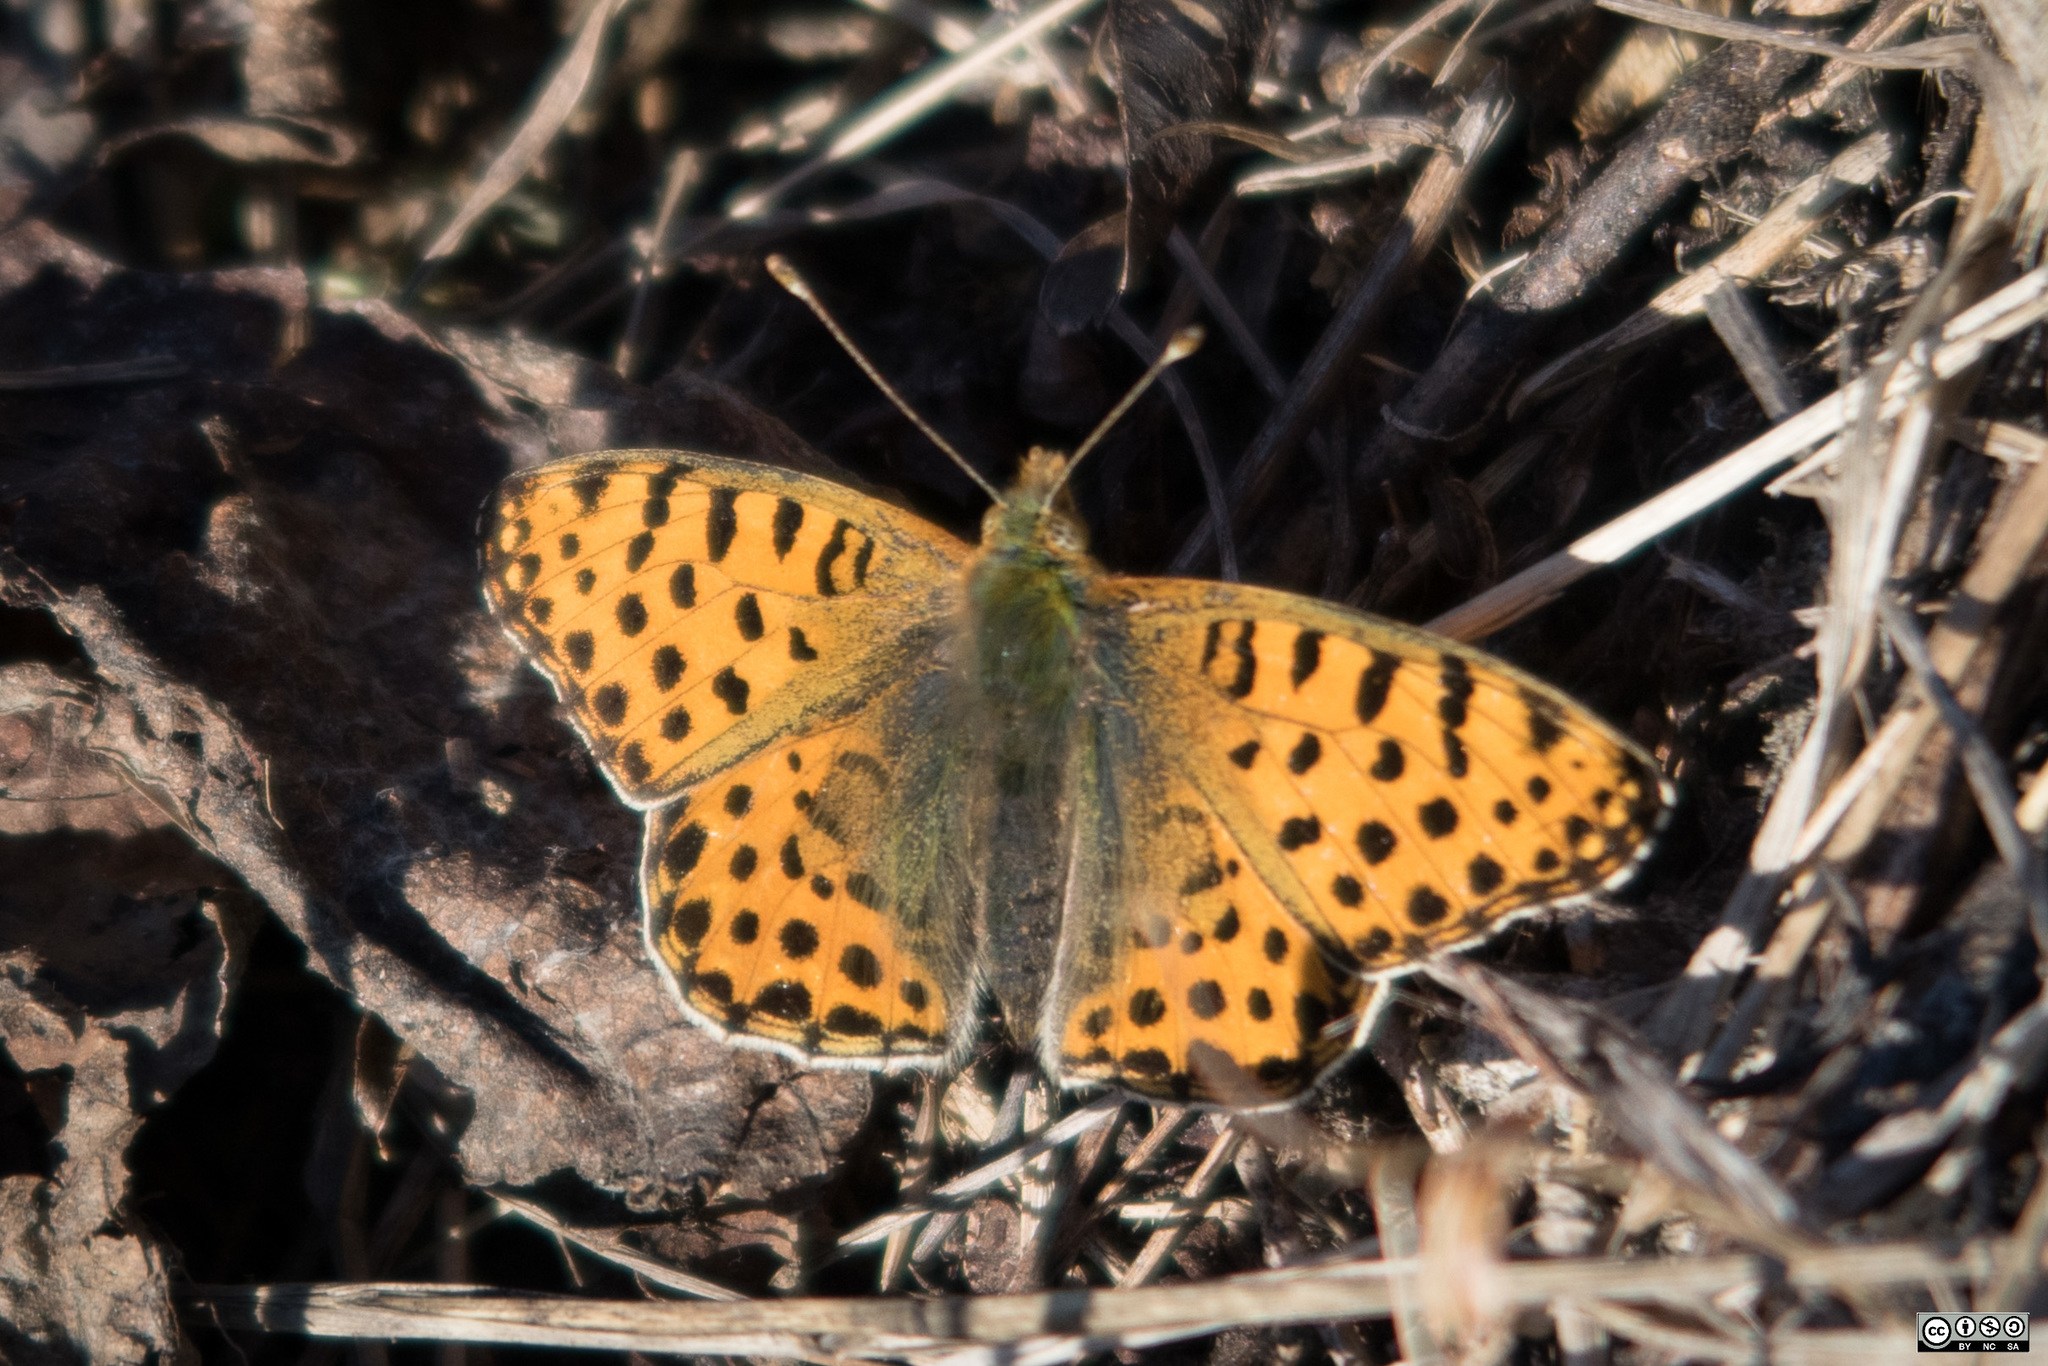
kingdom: Animalia
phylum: Arthropoda
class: Insecta
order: Lepidoptera
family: Nymphalidae
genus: Issoria
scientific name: Issoria lathonia
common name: Queen of spain fritillary
